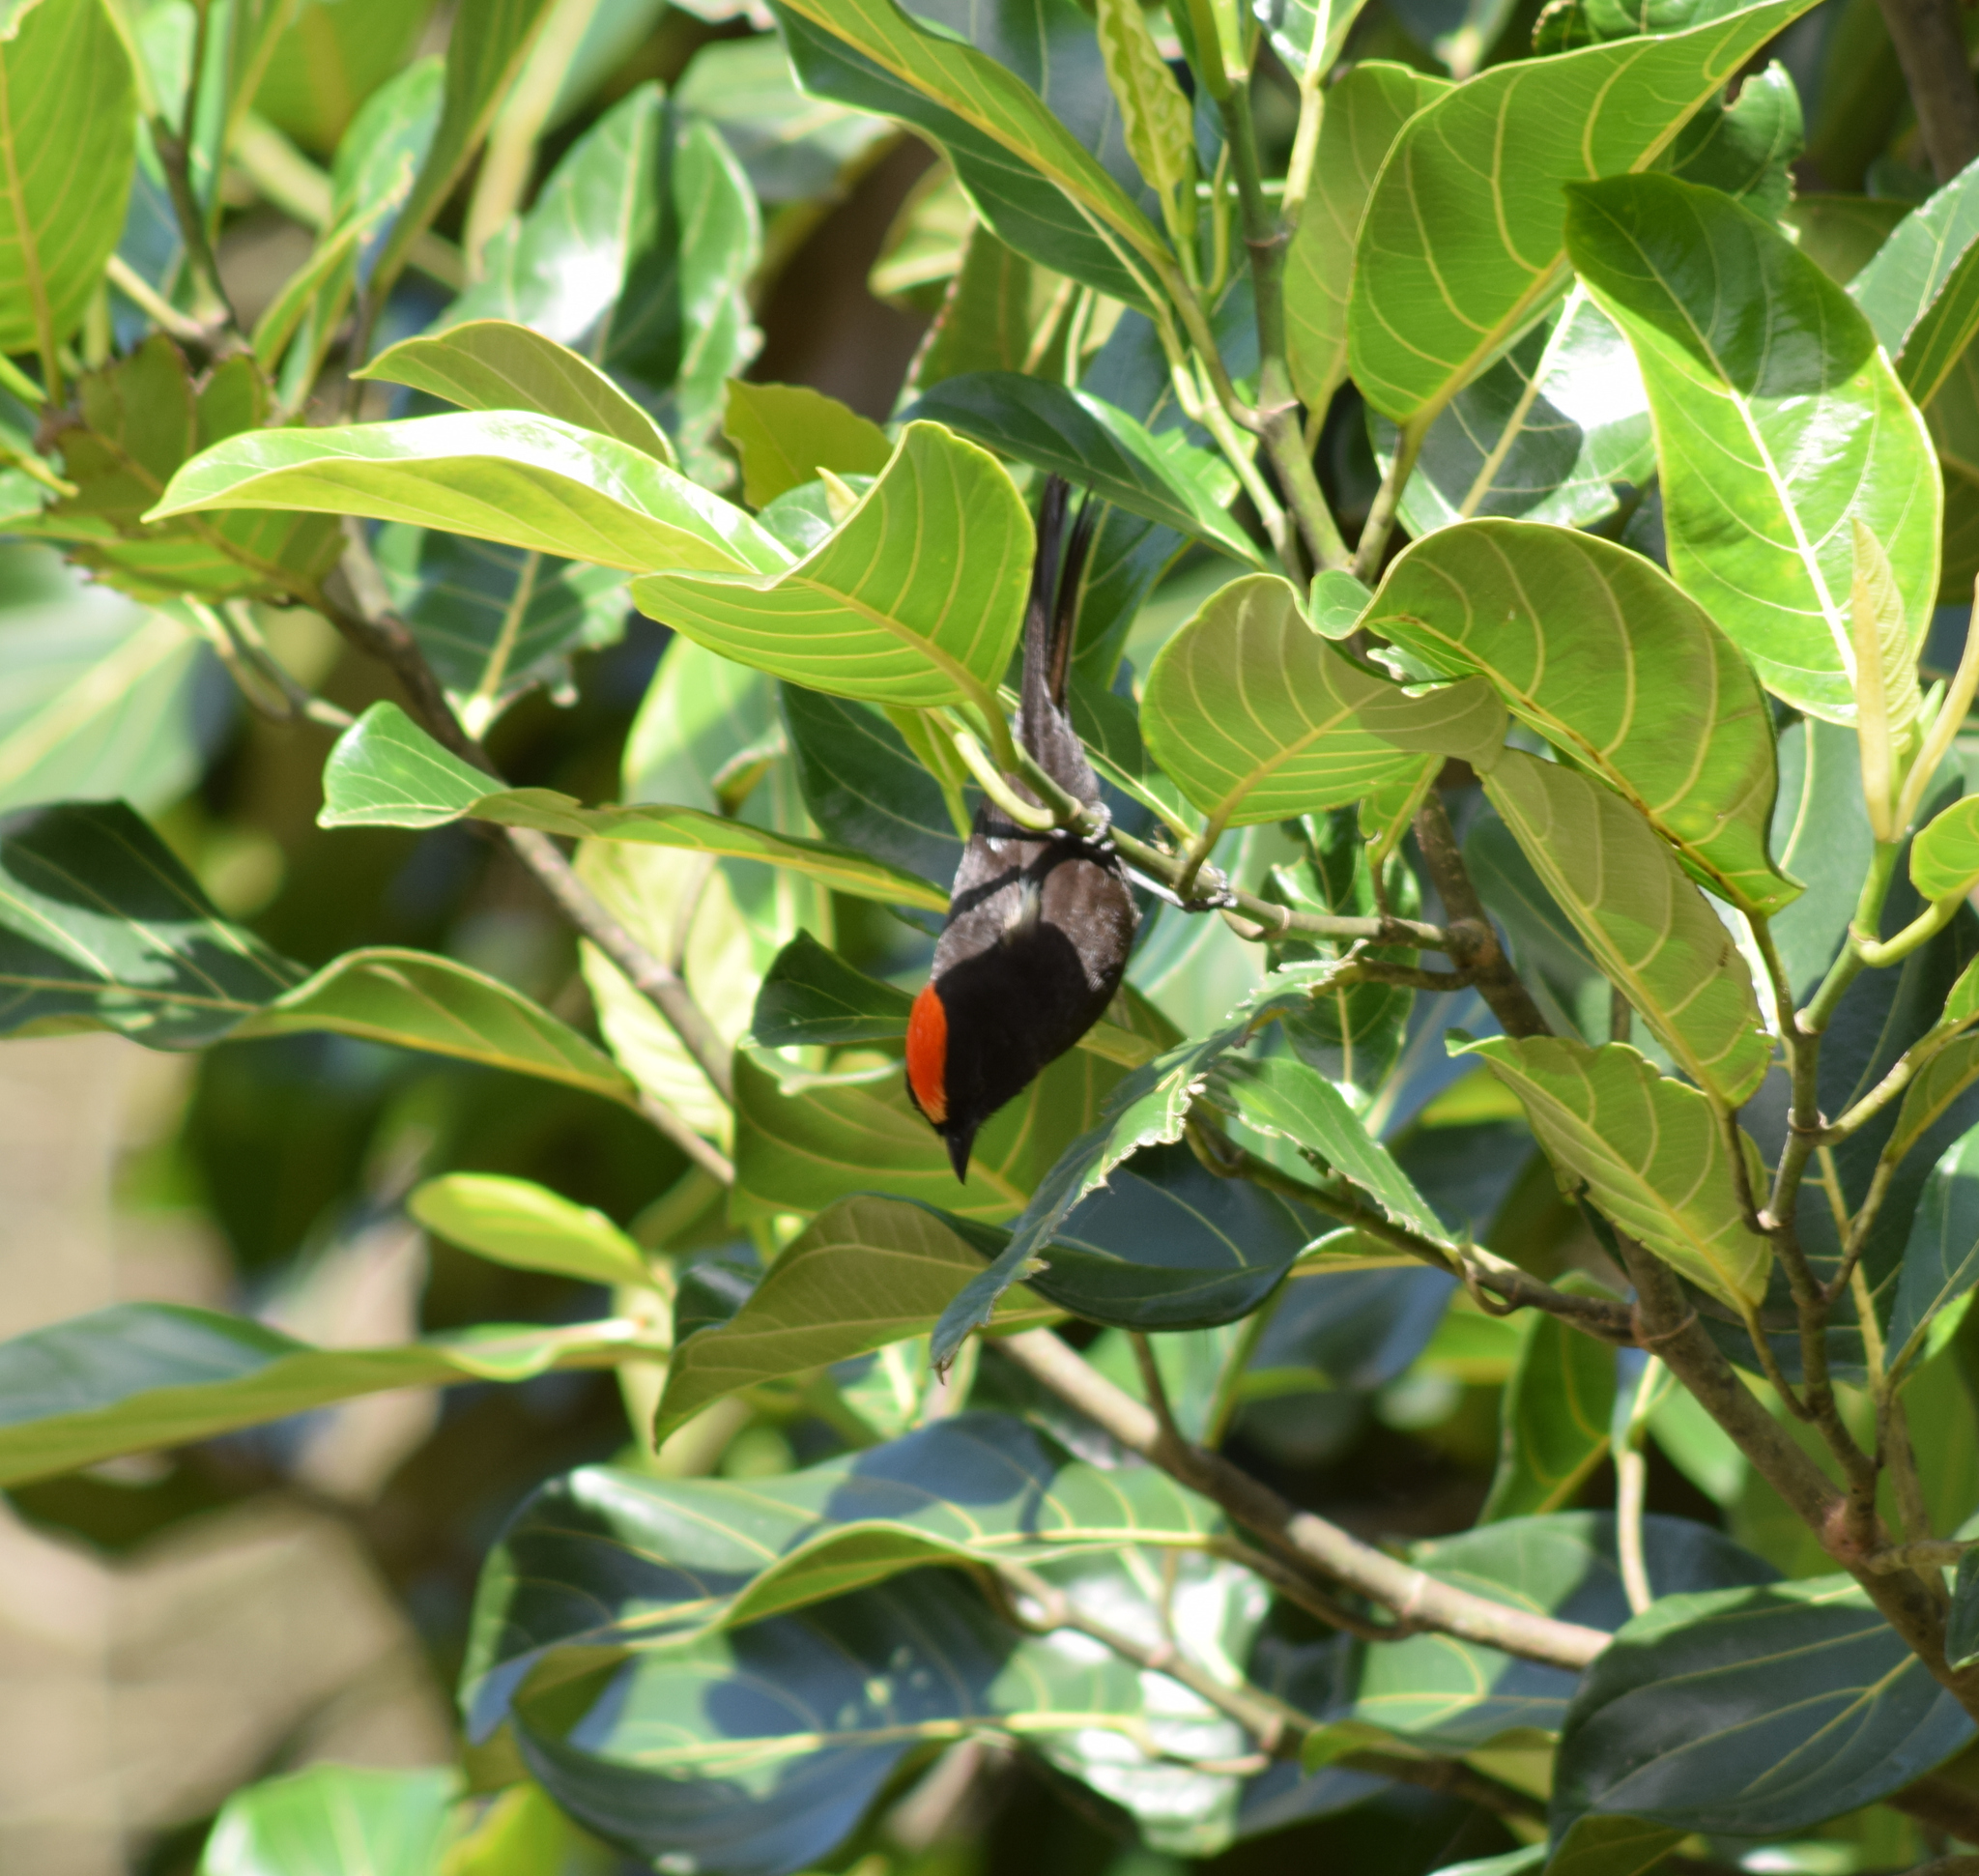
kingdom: Animalia
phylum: Chordata
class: Aves
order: Passeriformes
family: Thraupidae
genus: Loriotus
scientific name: Loriotus cristatus
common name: Flame-crested tanager
